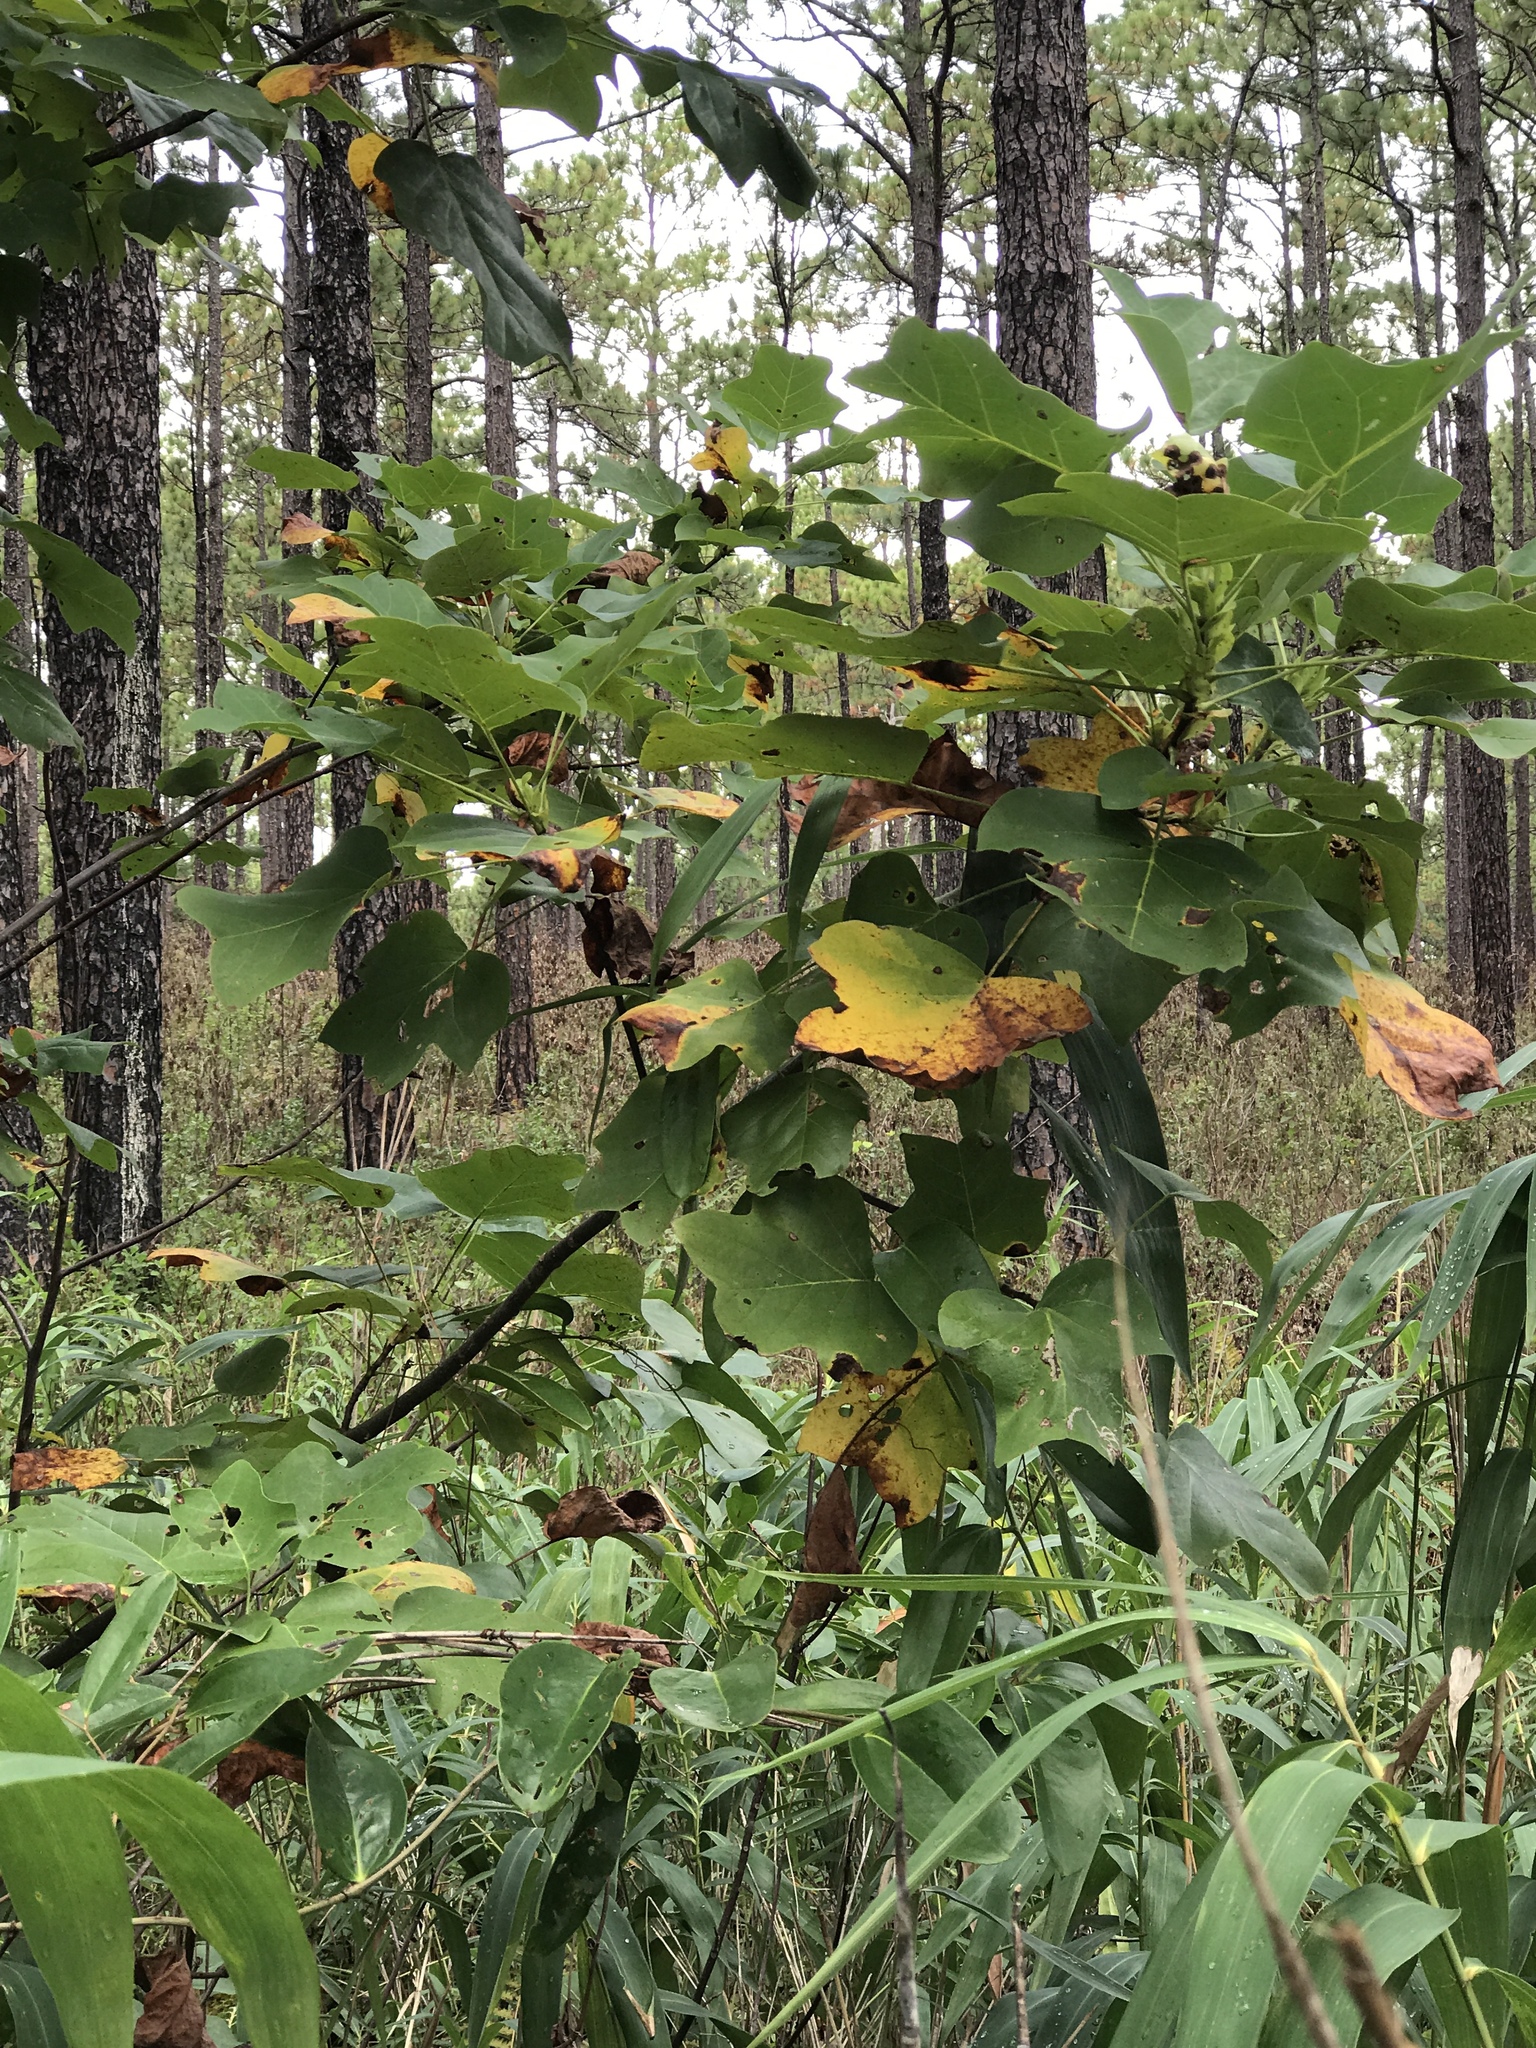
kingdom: Plantae
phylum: Tracheophyta
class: Magnoliopsida
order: Magnoliales
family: Magnoliaceae
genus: Liriodendron
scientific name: Liriodendron tulipifera
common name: Tulip tree
